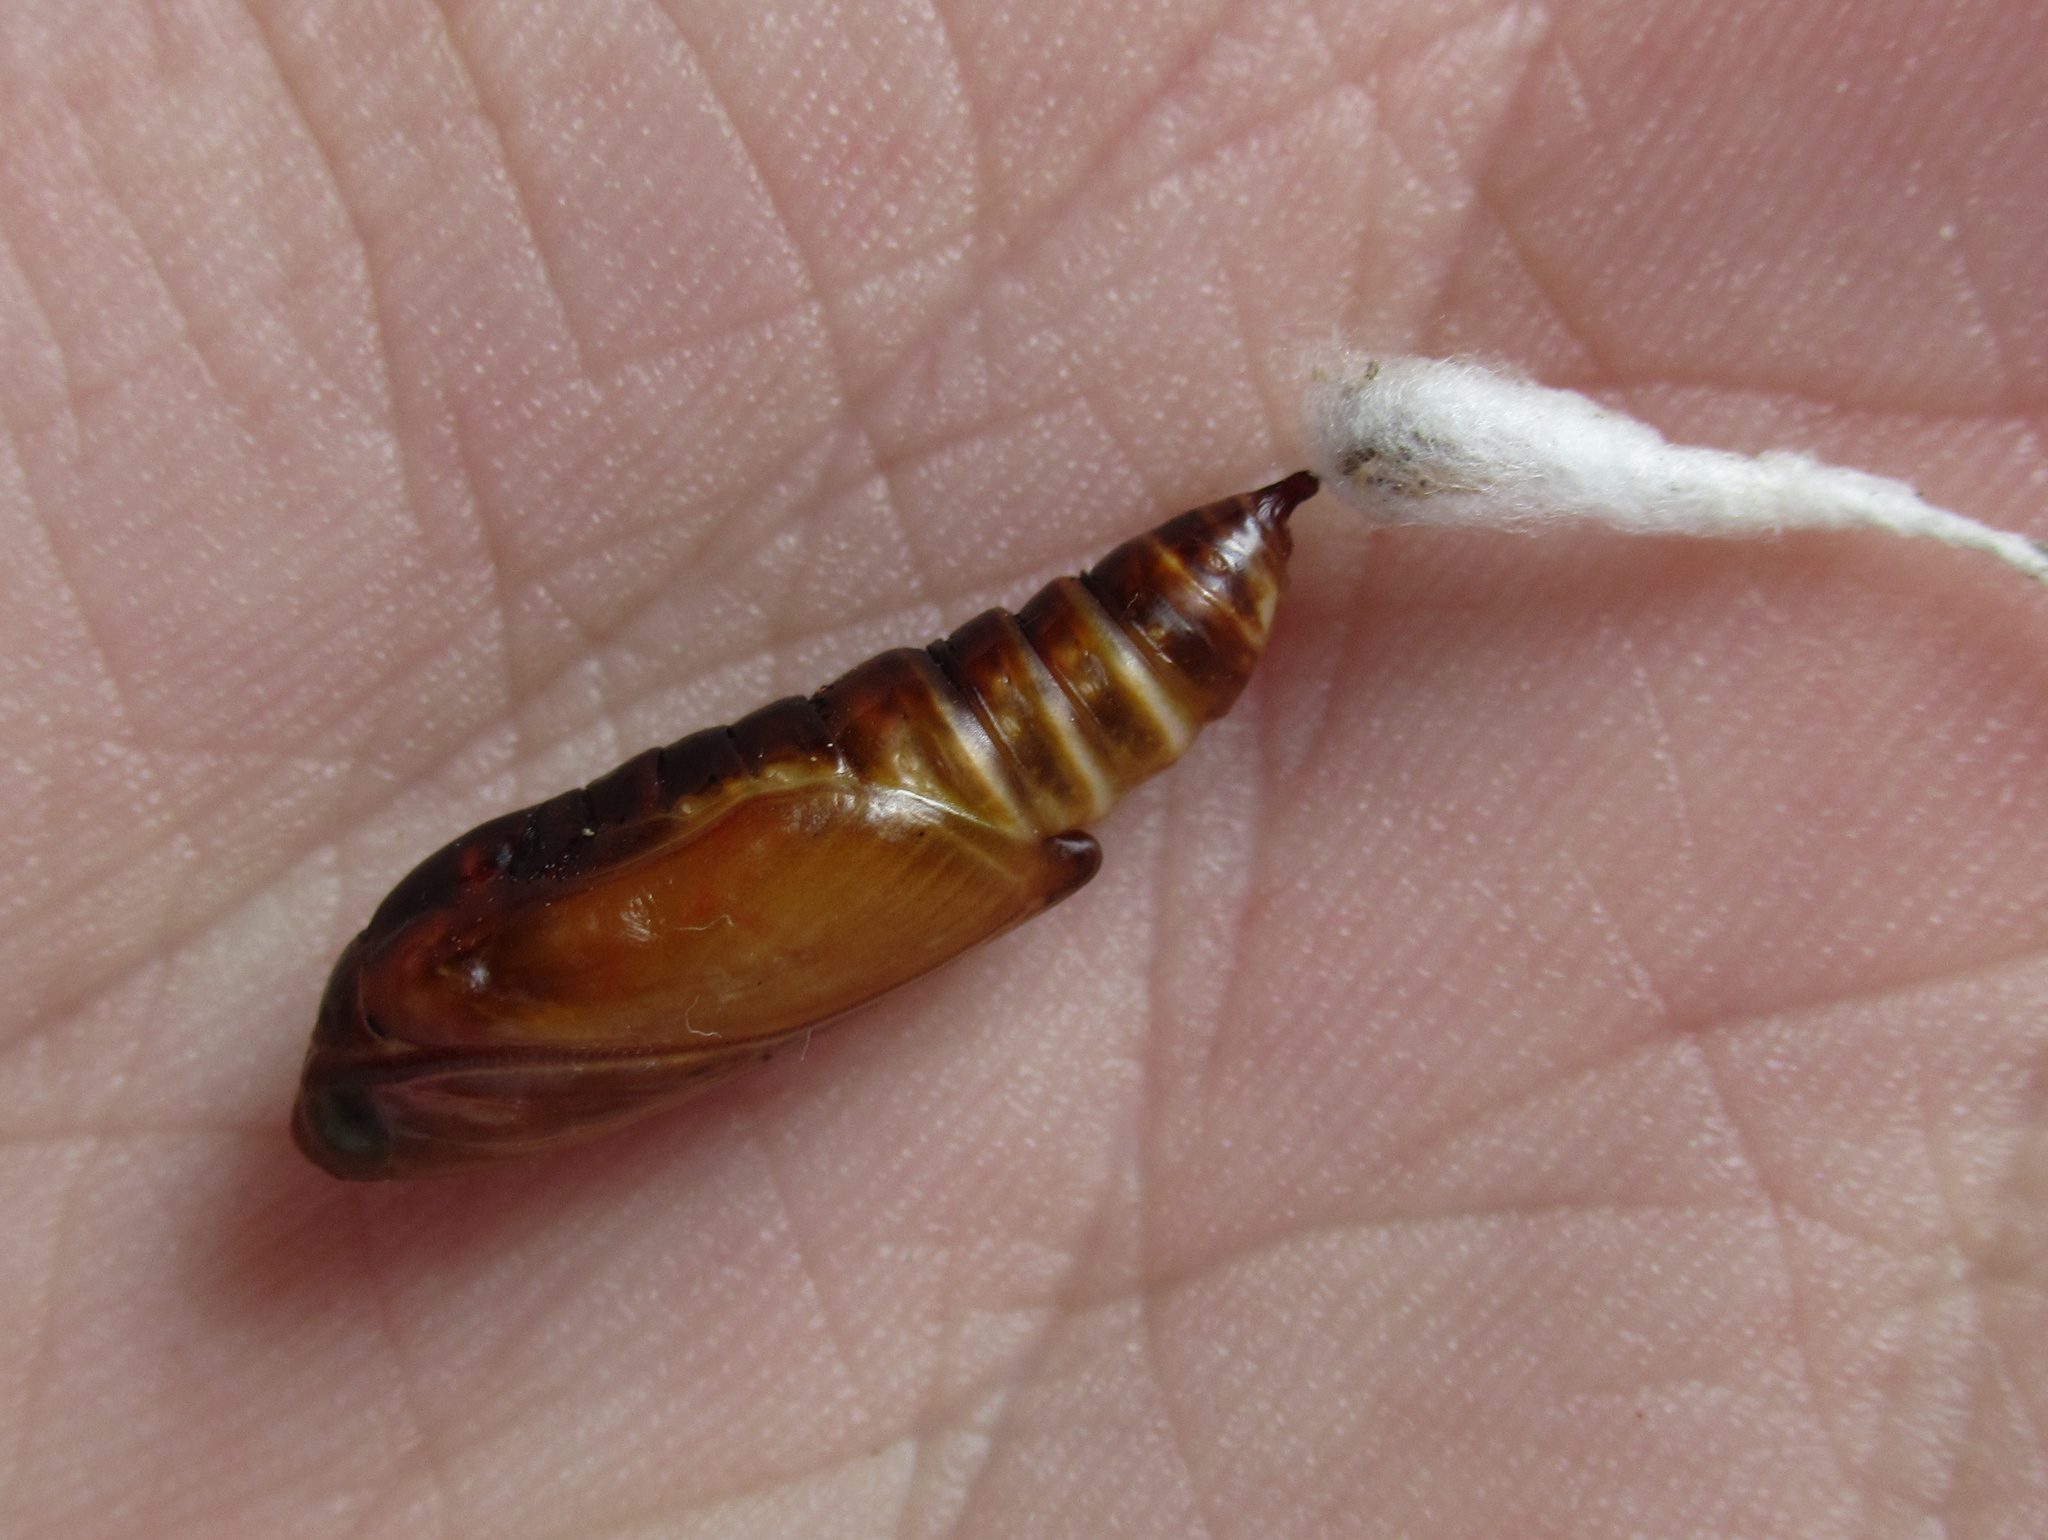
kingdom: Animalia
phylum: Arthropoda
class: Insecta
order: Lepidoptera
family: Noctuidae
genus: Ctenoplusia
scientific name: Ctenoplusia albostriata
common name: Moth
